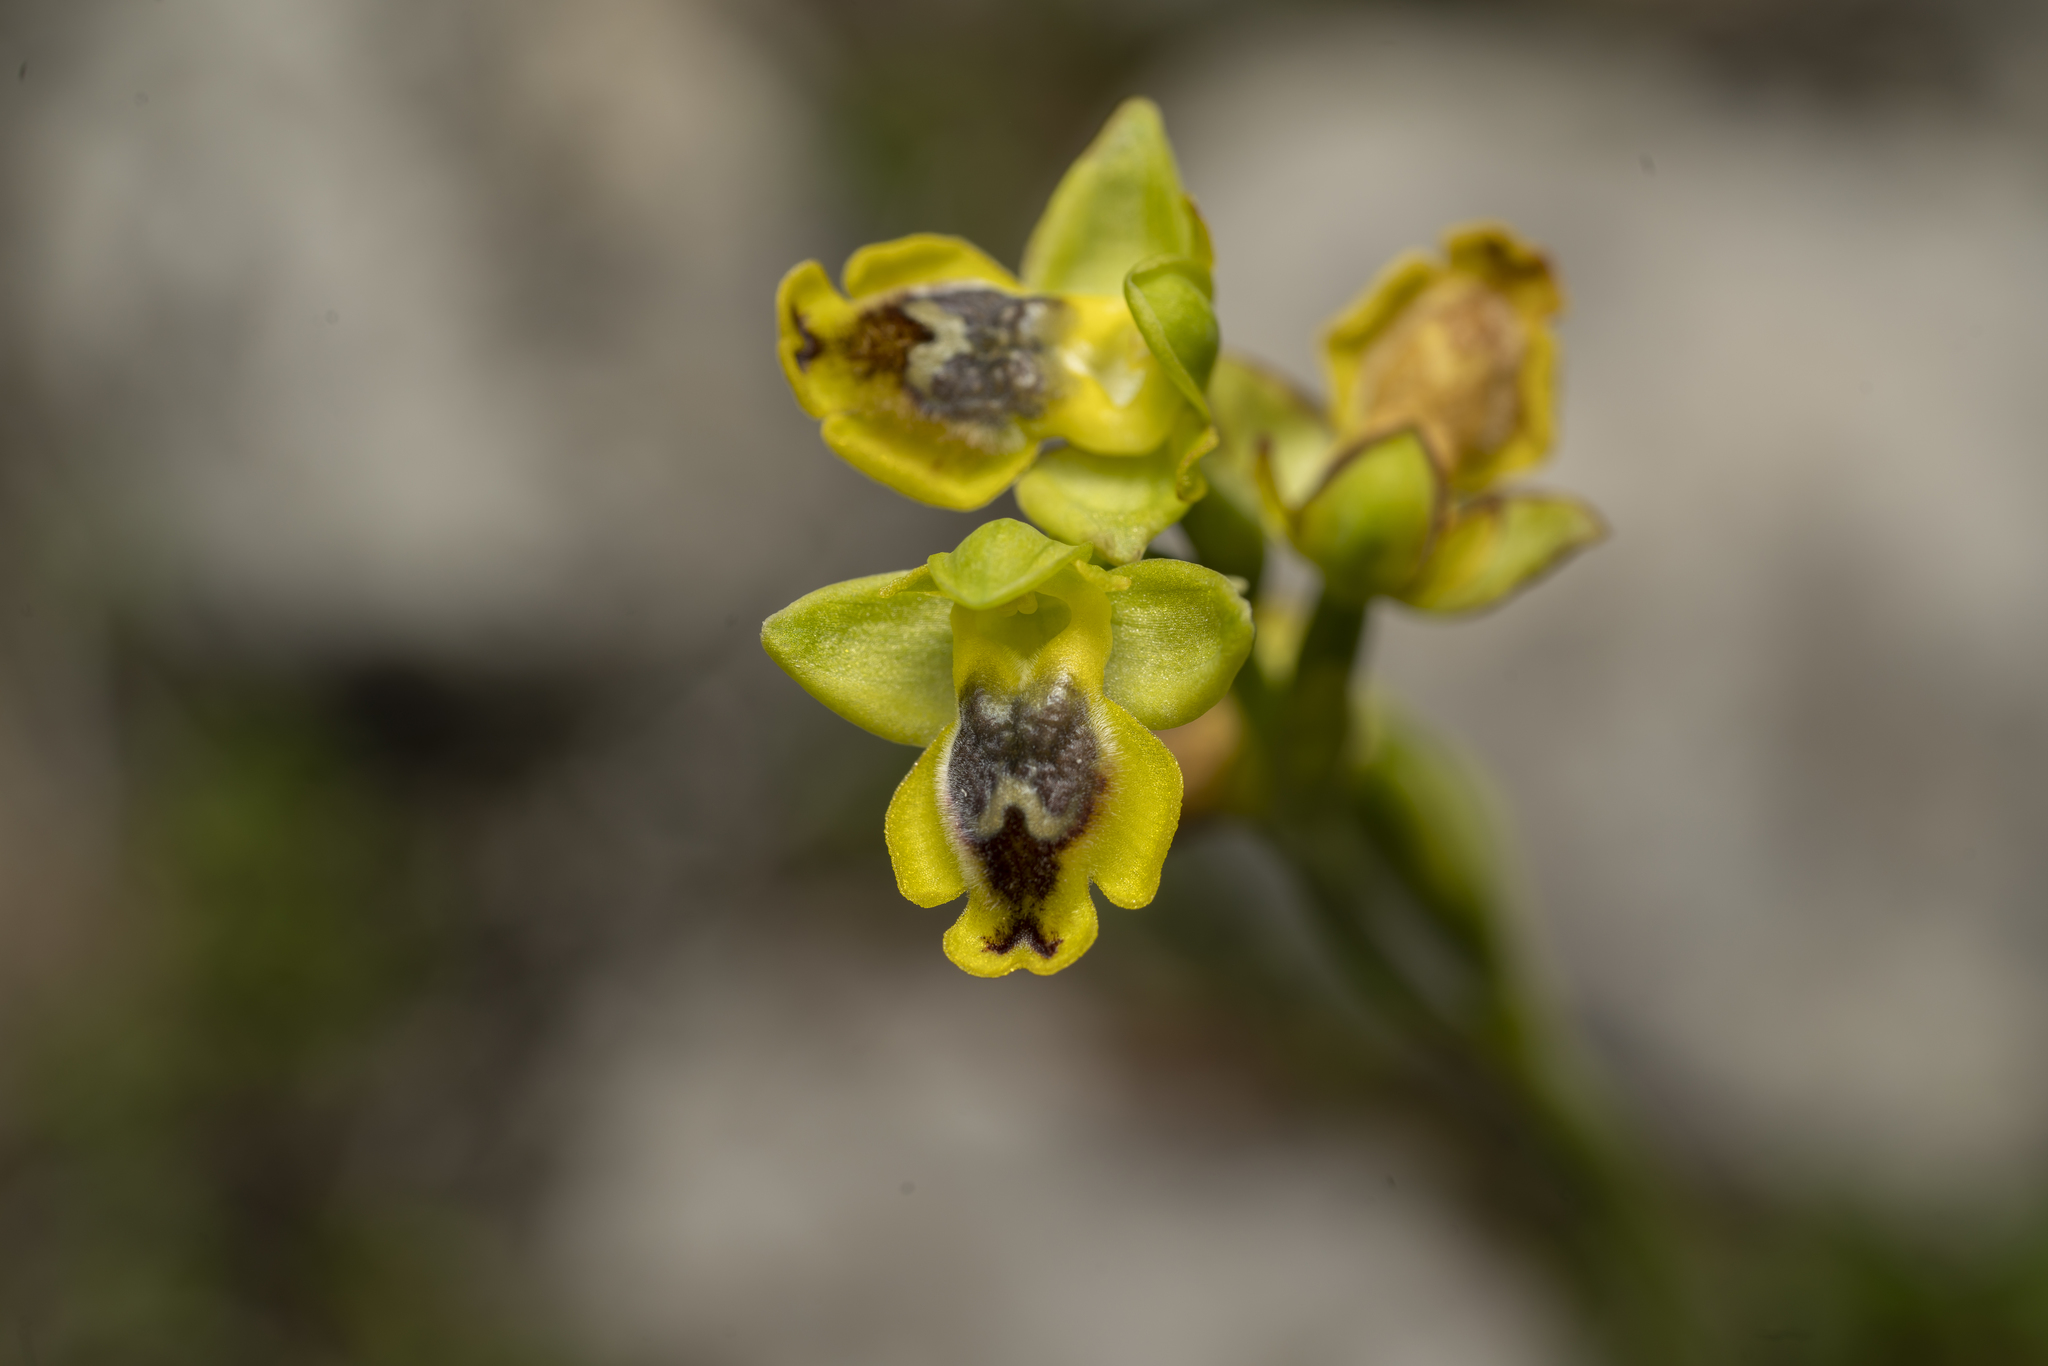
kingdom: Plantae
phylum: Tracheophyta
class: Liliopsida
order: Asparagales
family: Orchidaceae
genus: Ophrys
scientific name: Ophrys lutea
